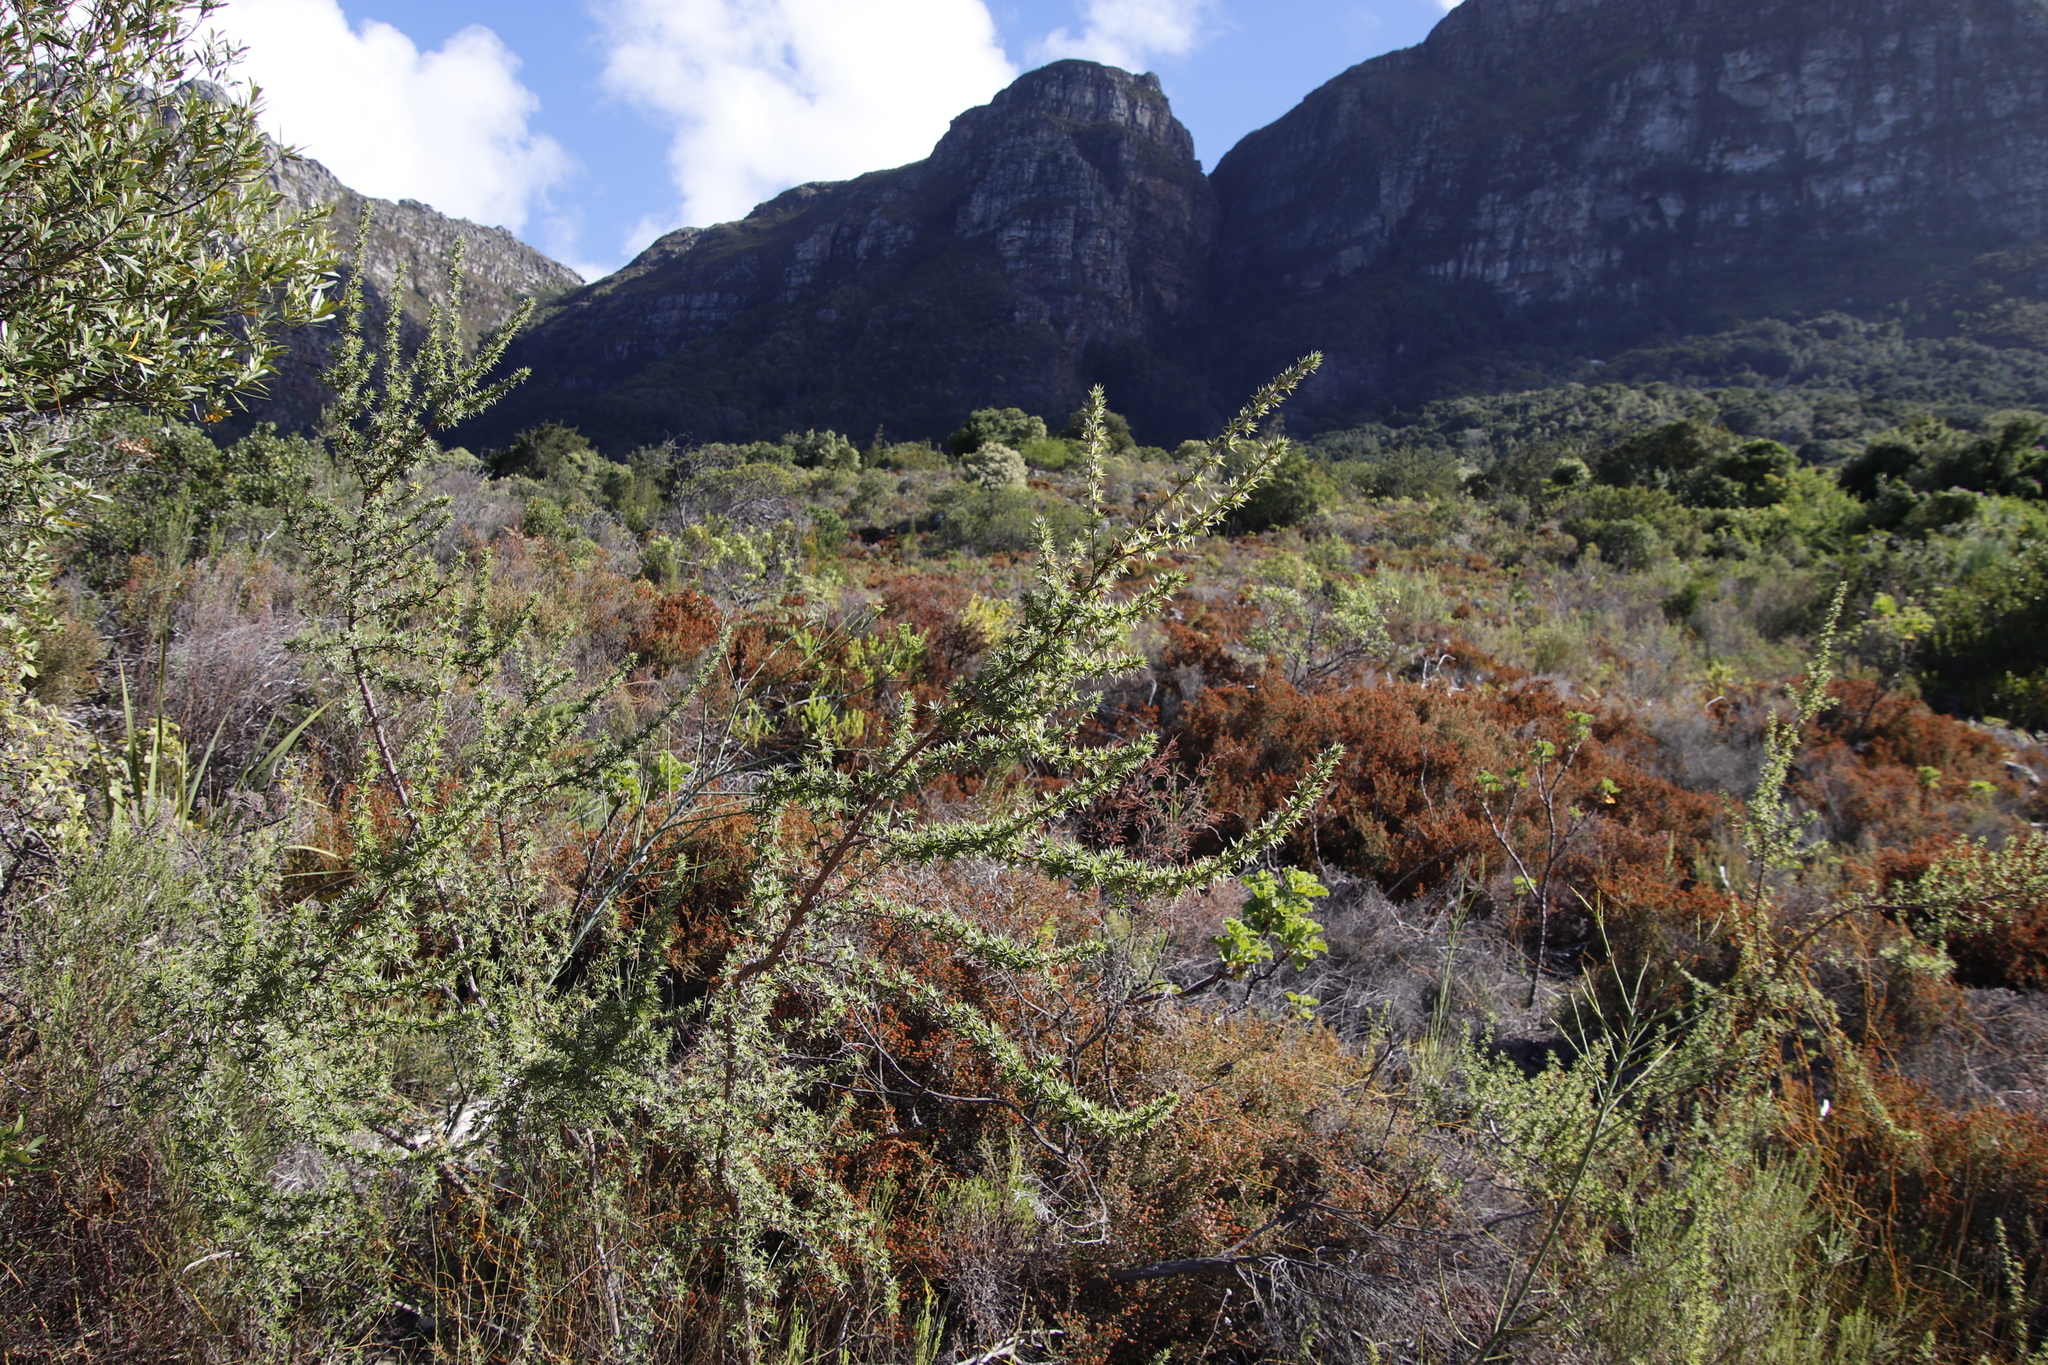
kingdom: Plantae
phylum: Tracheophyta
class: Magnoliopsida
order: Rosales
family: Rosaceae
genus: Cliffortia
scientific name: Cliffortia ruscifolia
